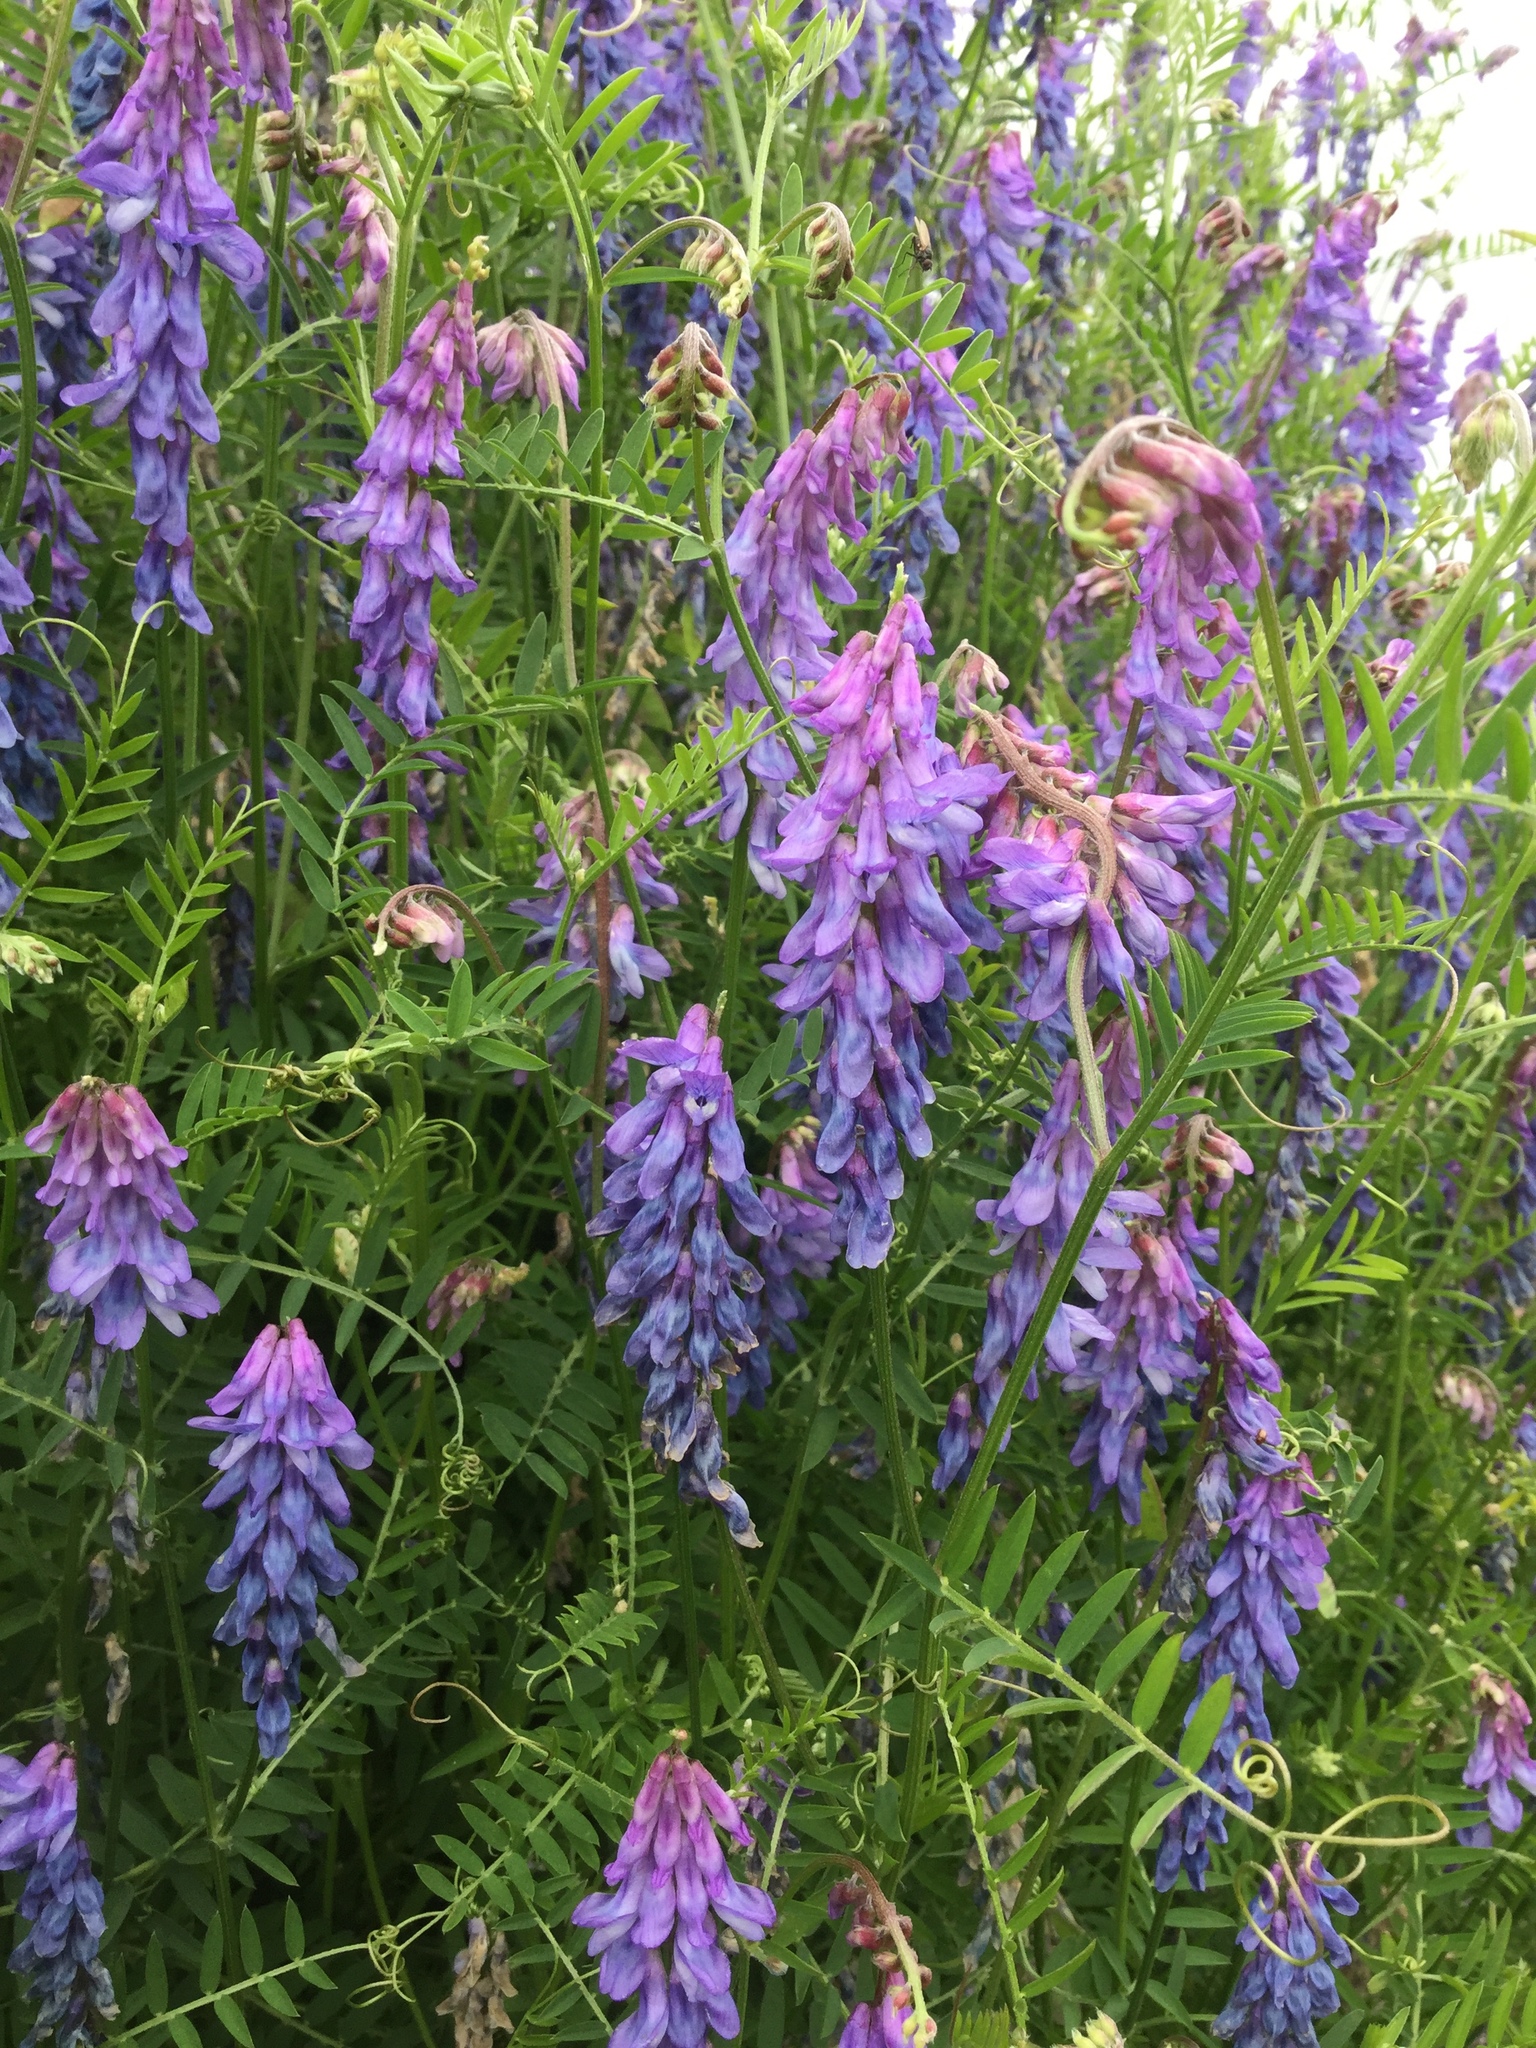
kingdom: Plantae
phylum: Tracheophyta
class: Magnoliopsida
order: Fabales
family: Fabaceae
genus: Vicia
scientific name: Vicia cracca
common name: Bird vetch
